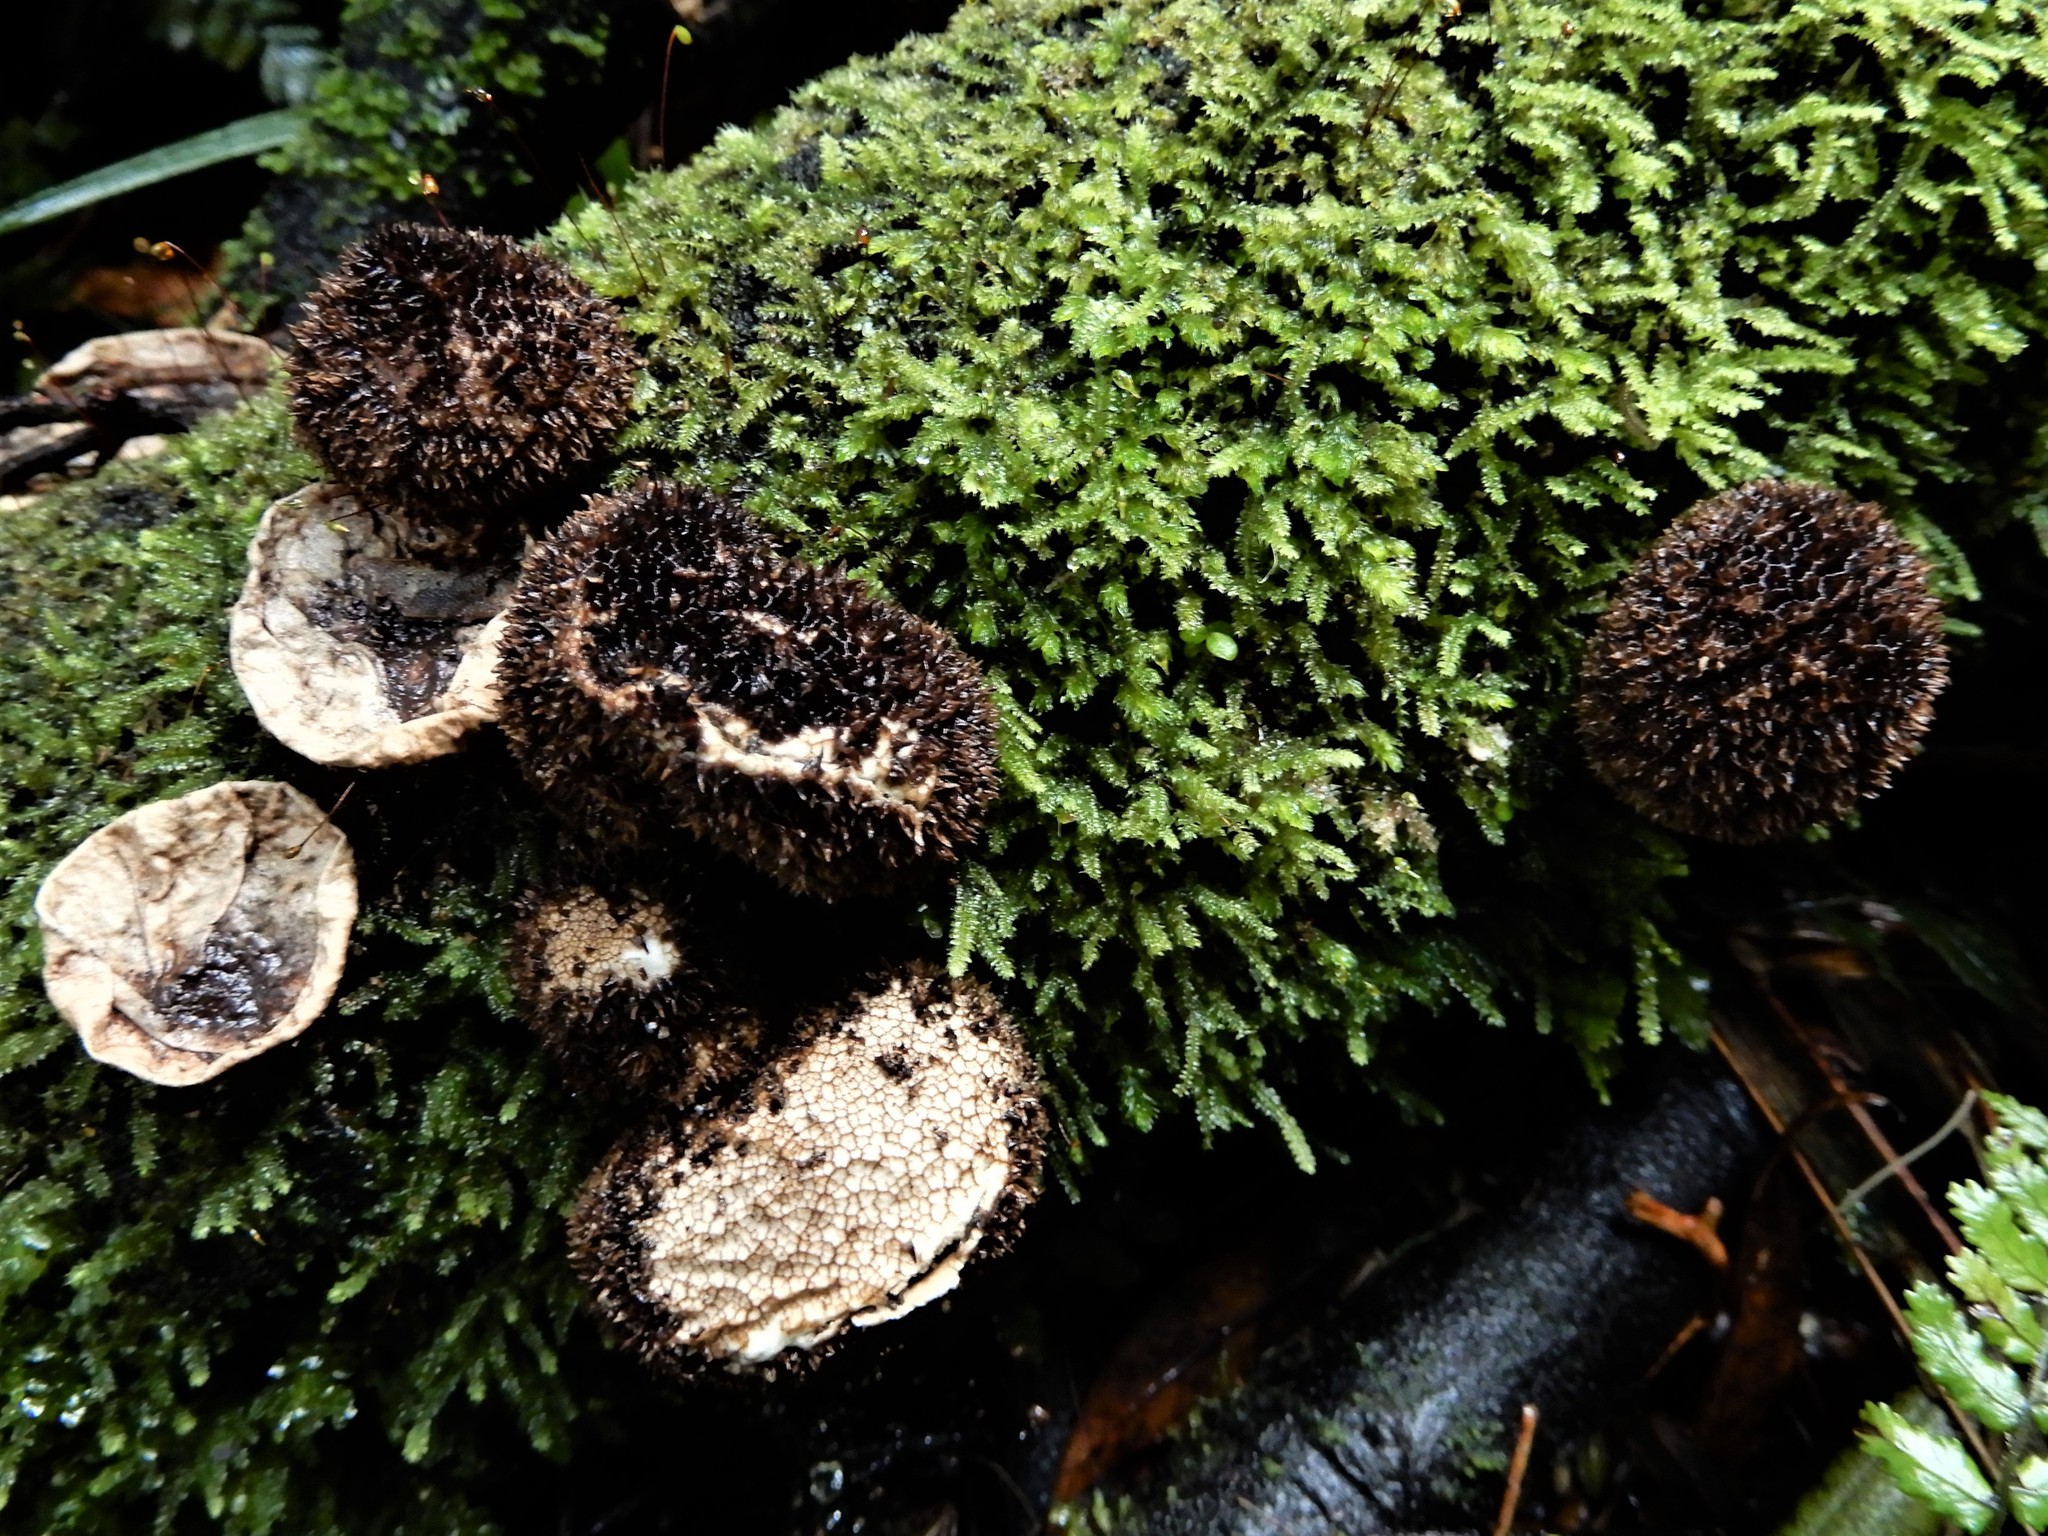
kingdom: Fungi
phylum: Basidiomycota
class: Agaricomycetes
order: Agaricales
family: Lycoperdaceae
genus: Lycoperdon
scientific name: Lycoperdon compactum
